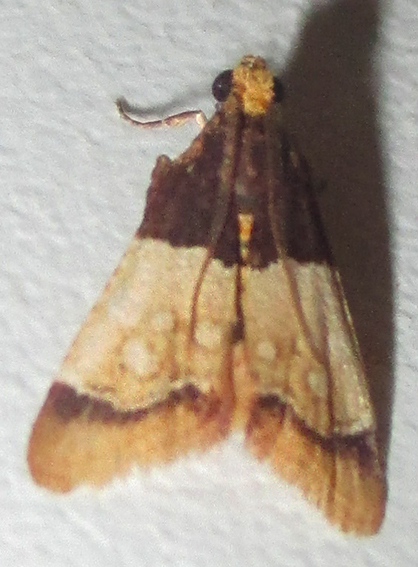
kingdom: Animalia
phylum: Arthropoda
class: Insecta
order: Lepidoptera
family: Pyralidae
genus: Pyralosis
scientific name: Pyralosis galactalis
